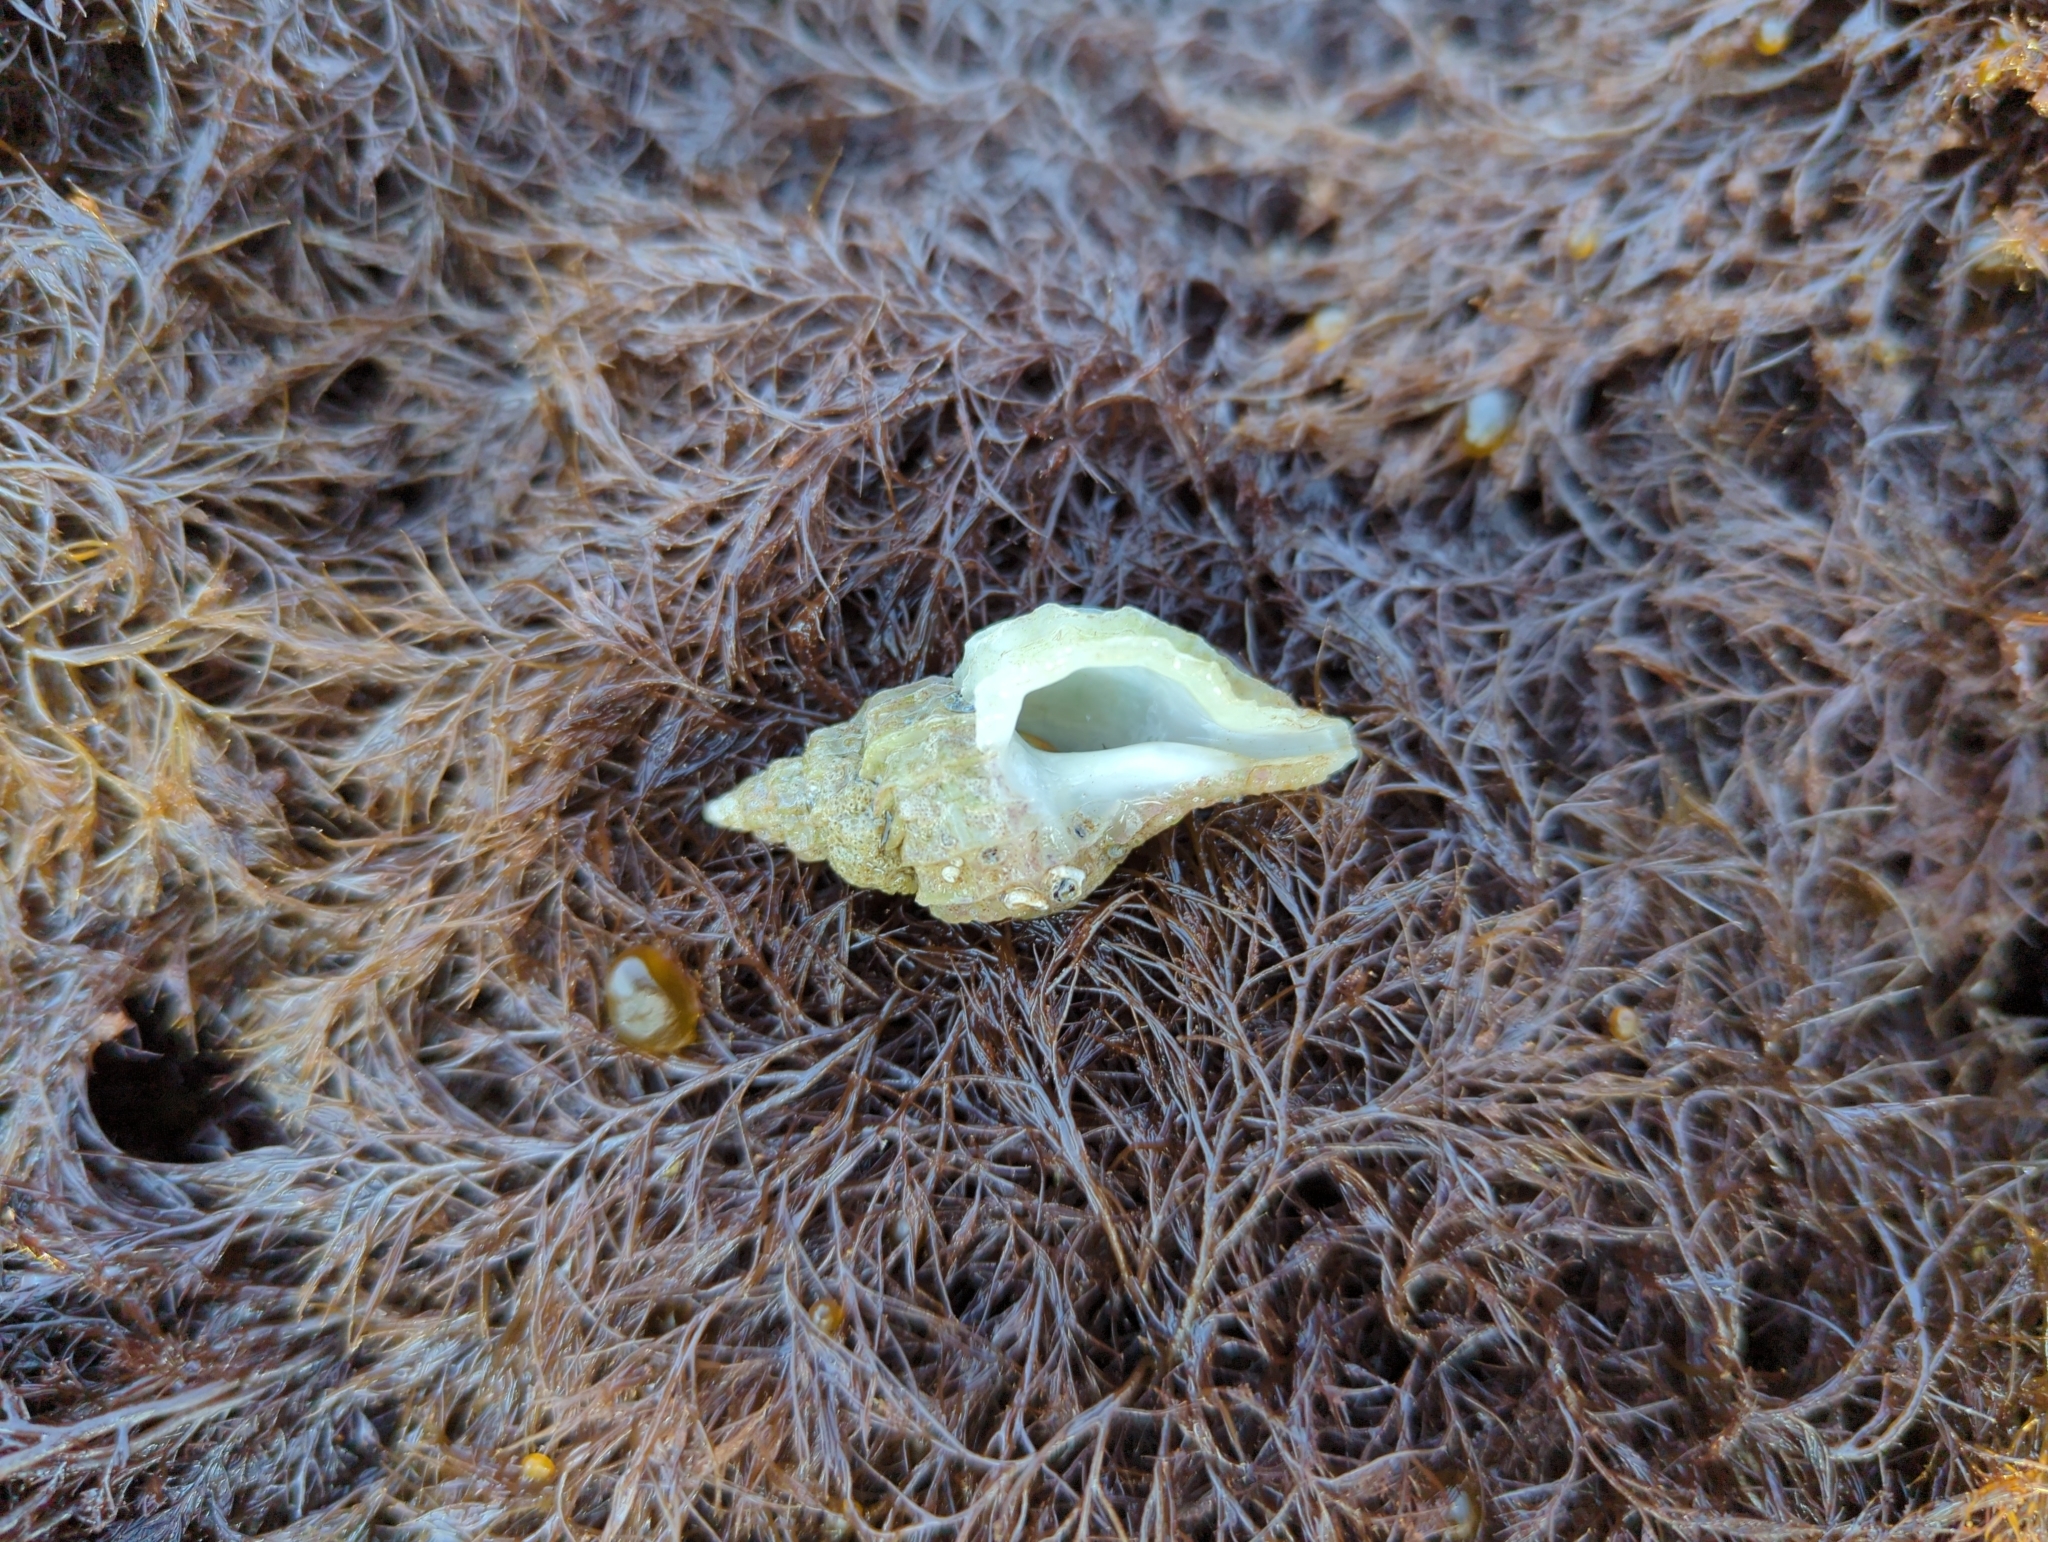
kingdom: Animalia
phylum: Mollusca
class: Gastropoda
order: Neogastropoda
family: Muricidae
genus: Scabrotrophon
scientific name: Scabrotrophon stuarti
